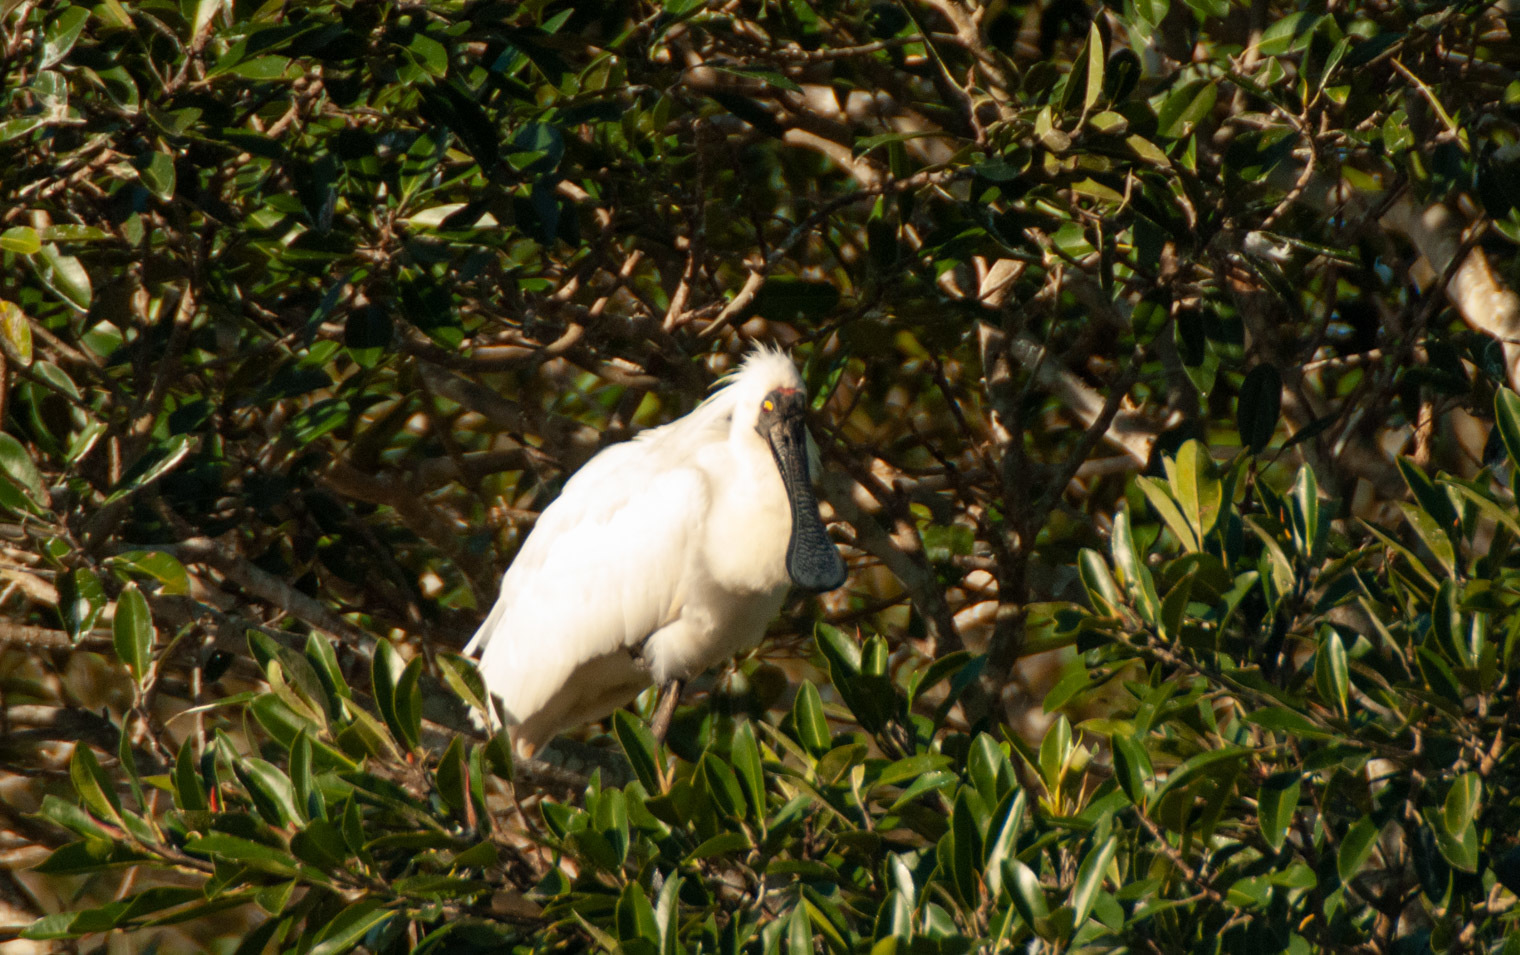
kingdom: Animalia
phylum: Chordata
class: Aves
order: Pelecaniformes
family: Threskiornithidae
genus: Platalea
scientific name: Platalea regia
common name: Royal spoonbill
